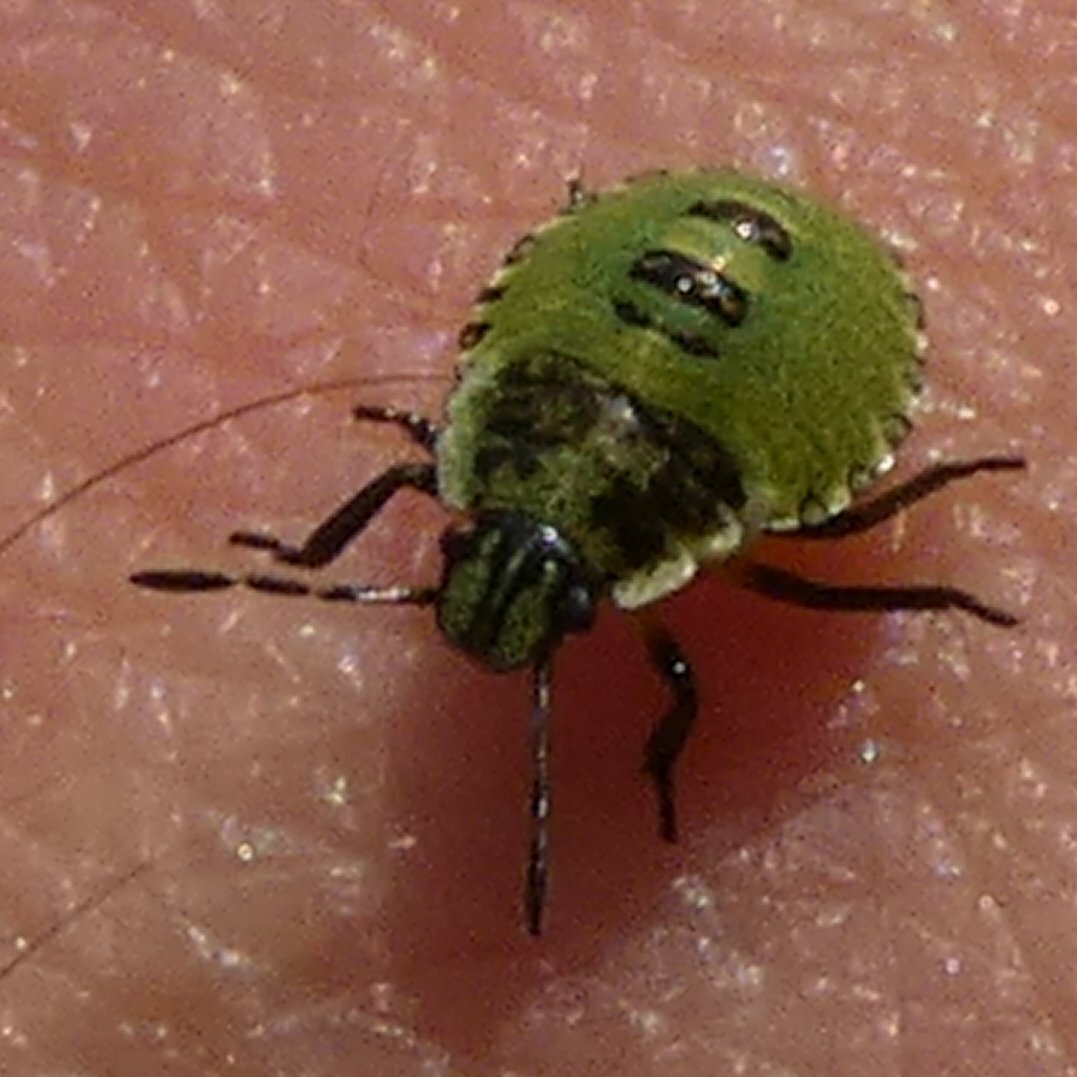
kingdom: Animalia
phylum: Arthropoda
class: Insecta
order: Hemiptera
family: Pentatomidae
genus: Palomena
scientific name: Palomena prasina
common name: Green shieldbug
